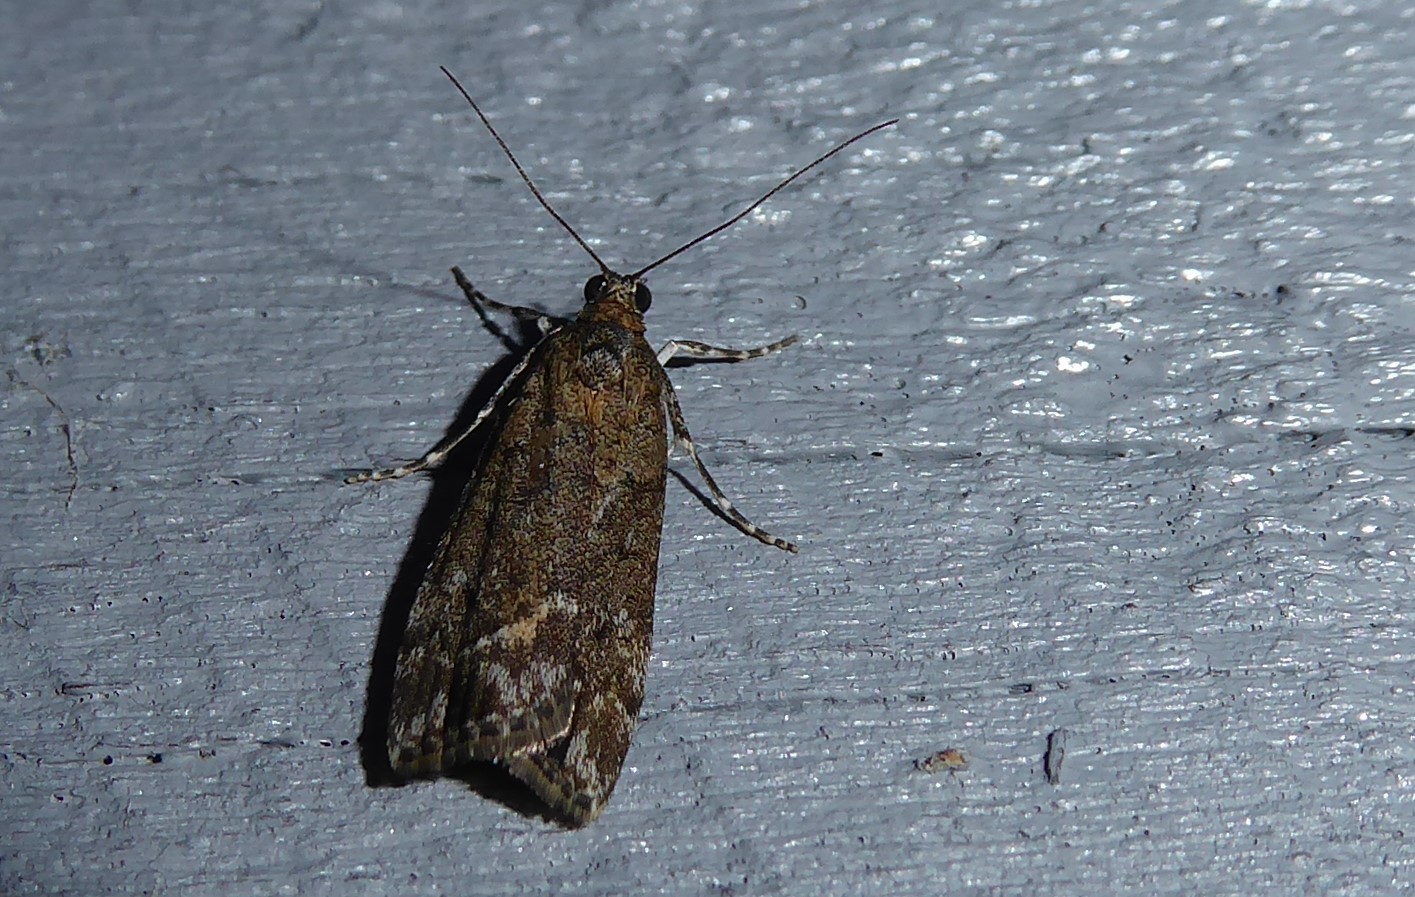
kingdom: Animalia
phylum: Arthropoda
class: Insecta
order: Lepidoptera
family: Crambidae
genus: Eudonia
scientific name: Eudonia submarginalis
